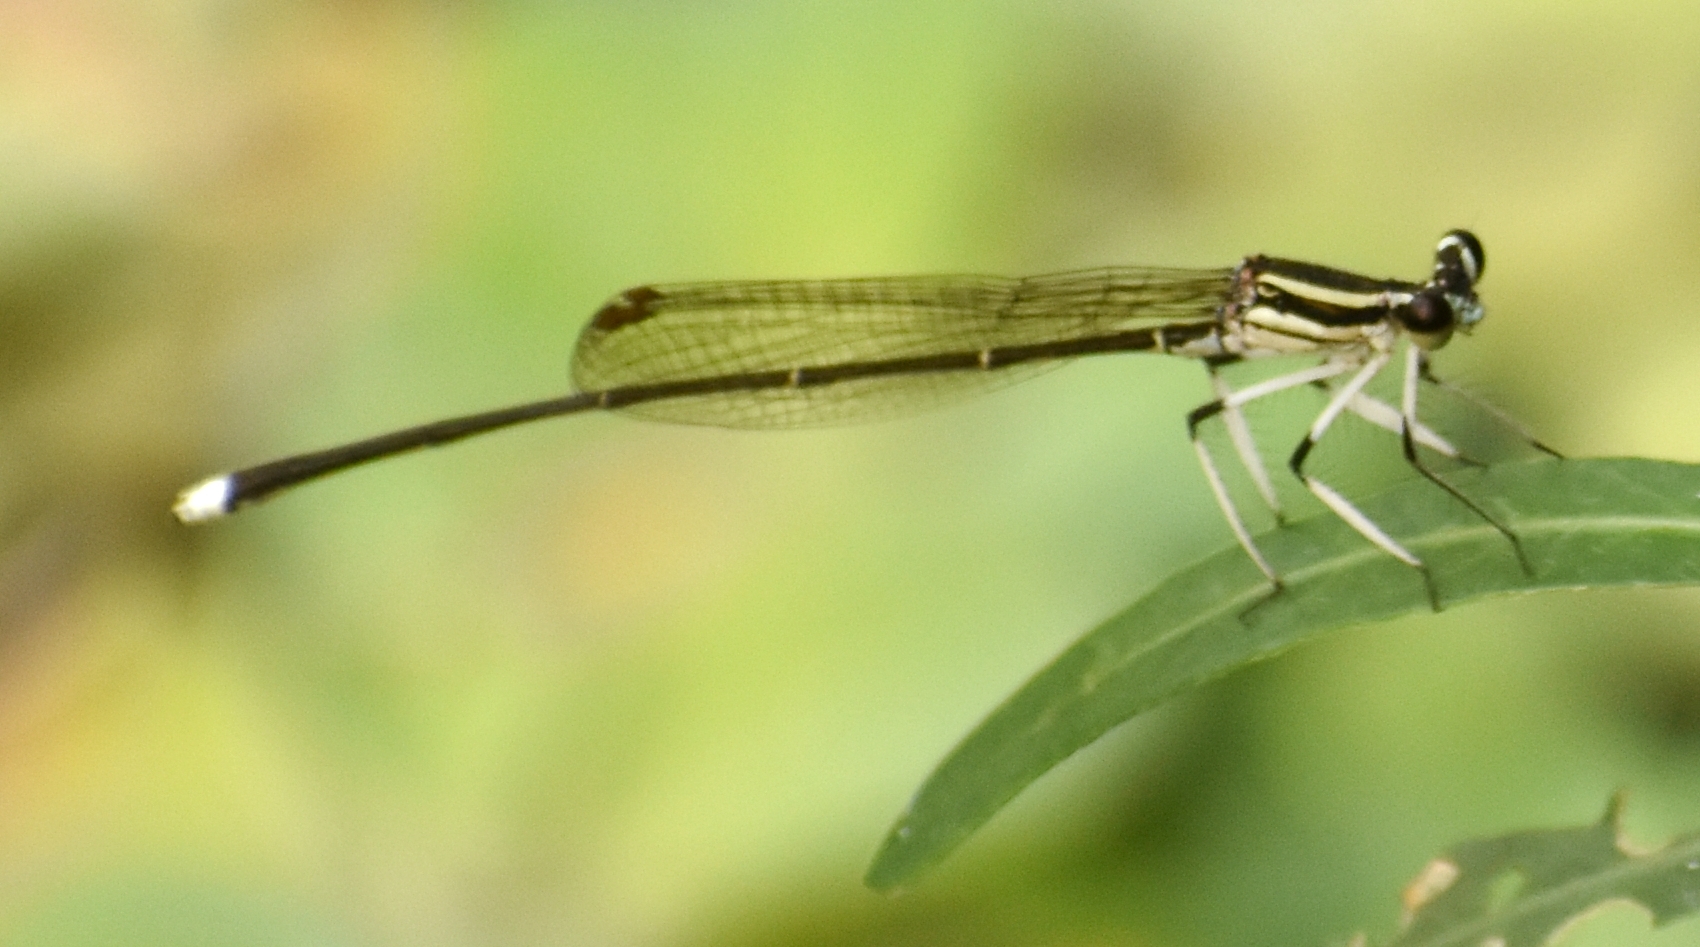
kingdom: Animalia
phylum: Arthropoda
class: Insecta
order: Odonata
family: Platycnemididae
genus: Pseudocopera
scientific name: Pseudocopera ciliata
